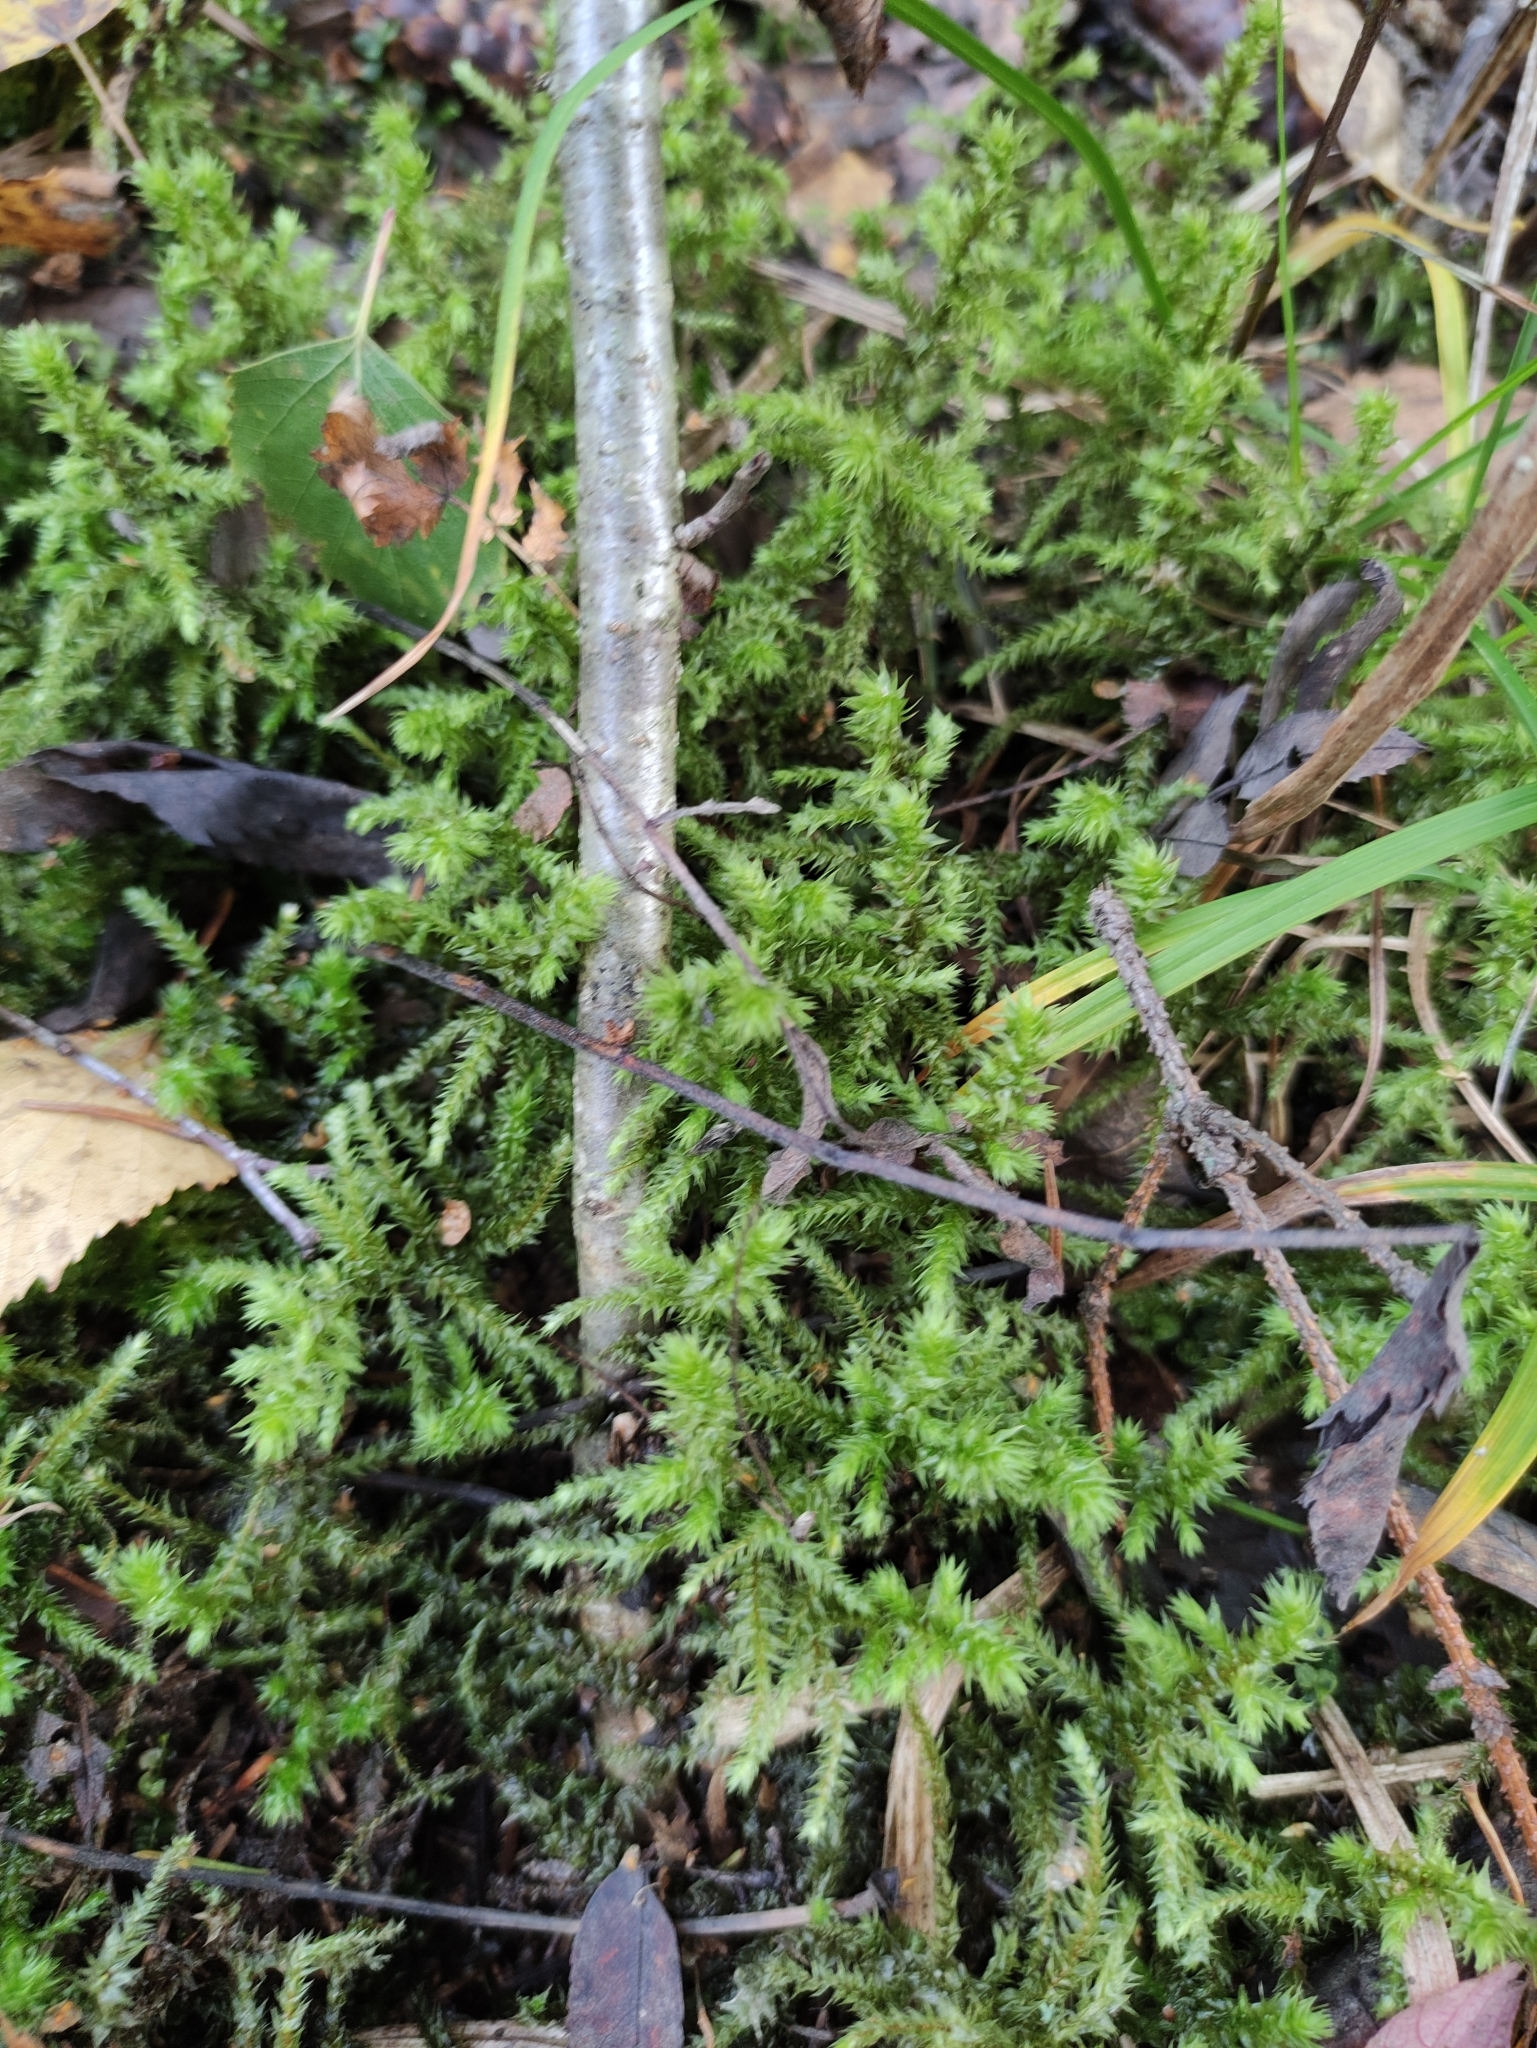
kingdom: Plantae
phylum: Bryophyta
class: Bryopsida
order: Hypnales
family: Hylocomiaceae
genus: Hylocomiadelphus
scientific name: Hylocomiadelphus triquetrus
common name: Rough goose neck moss
